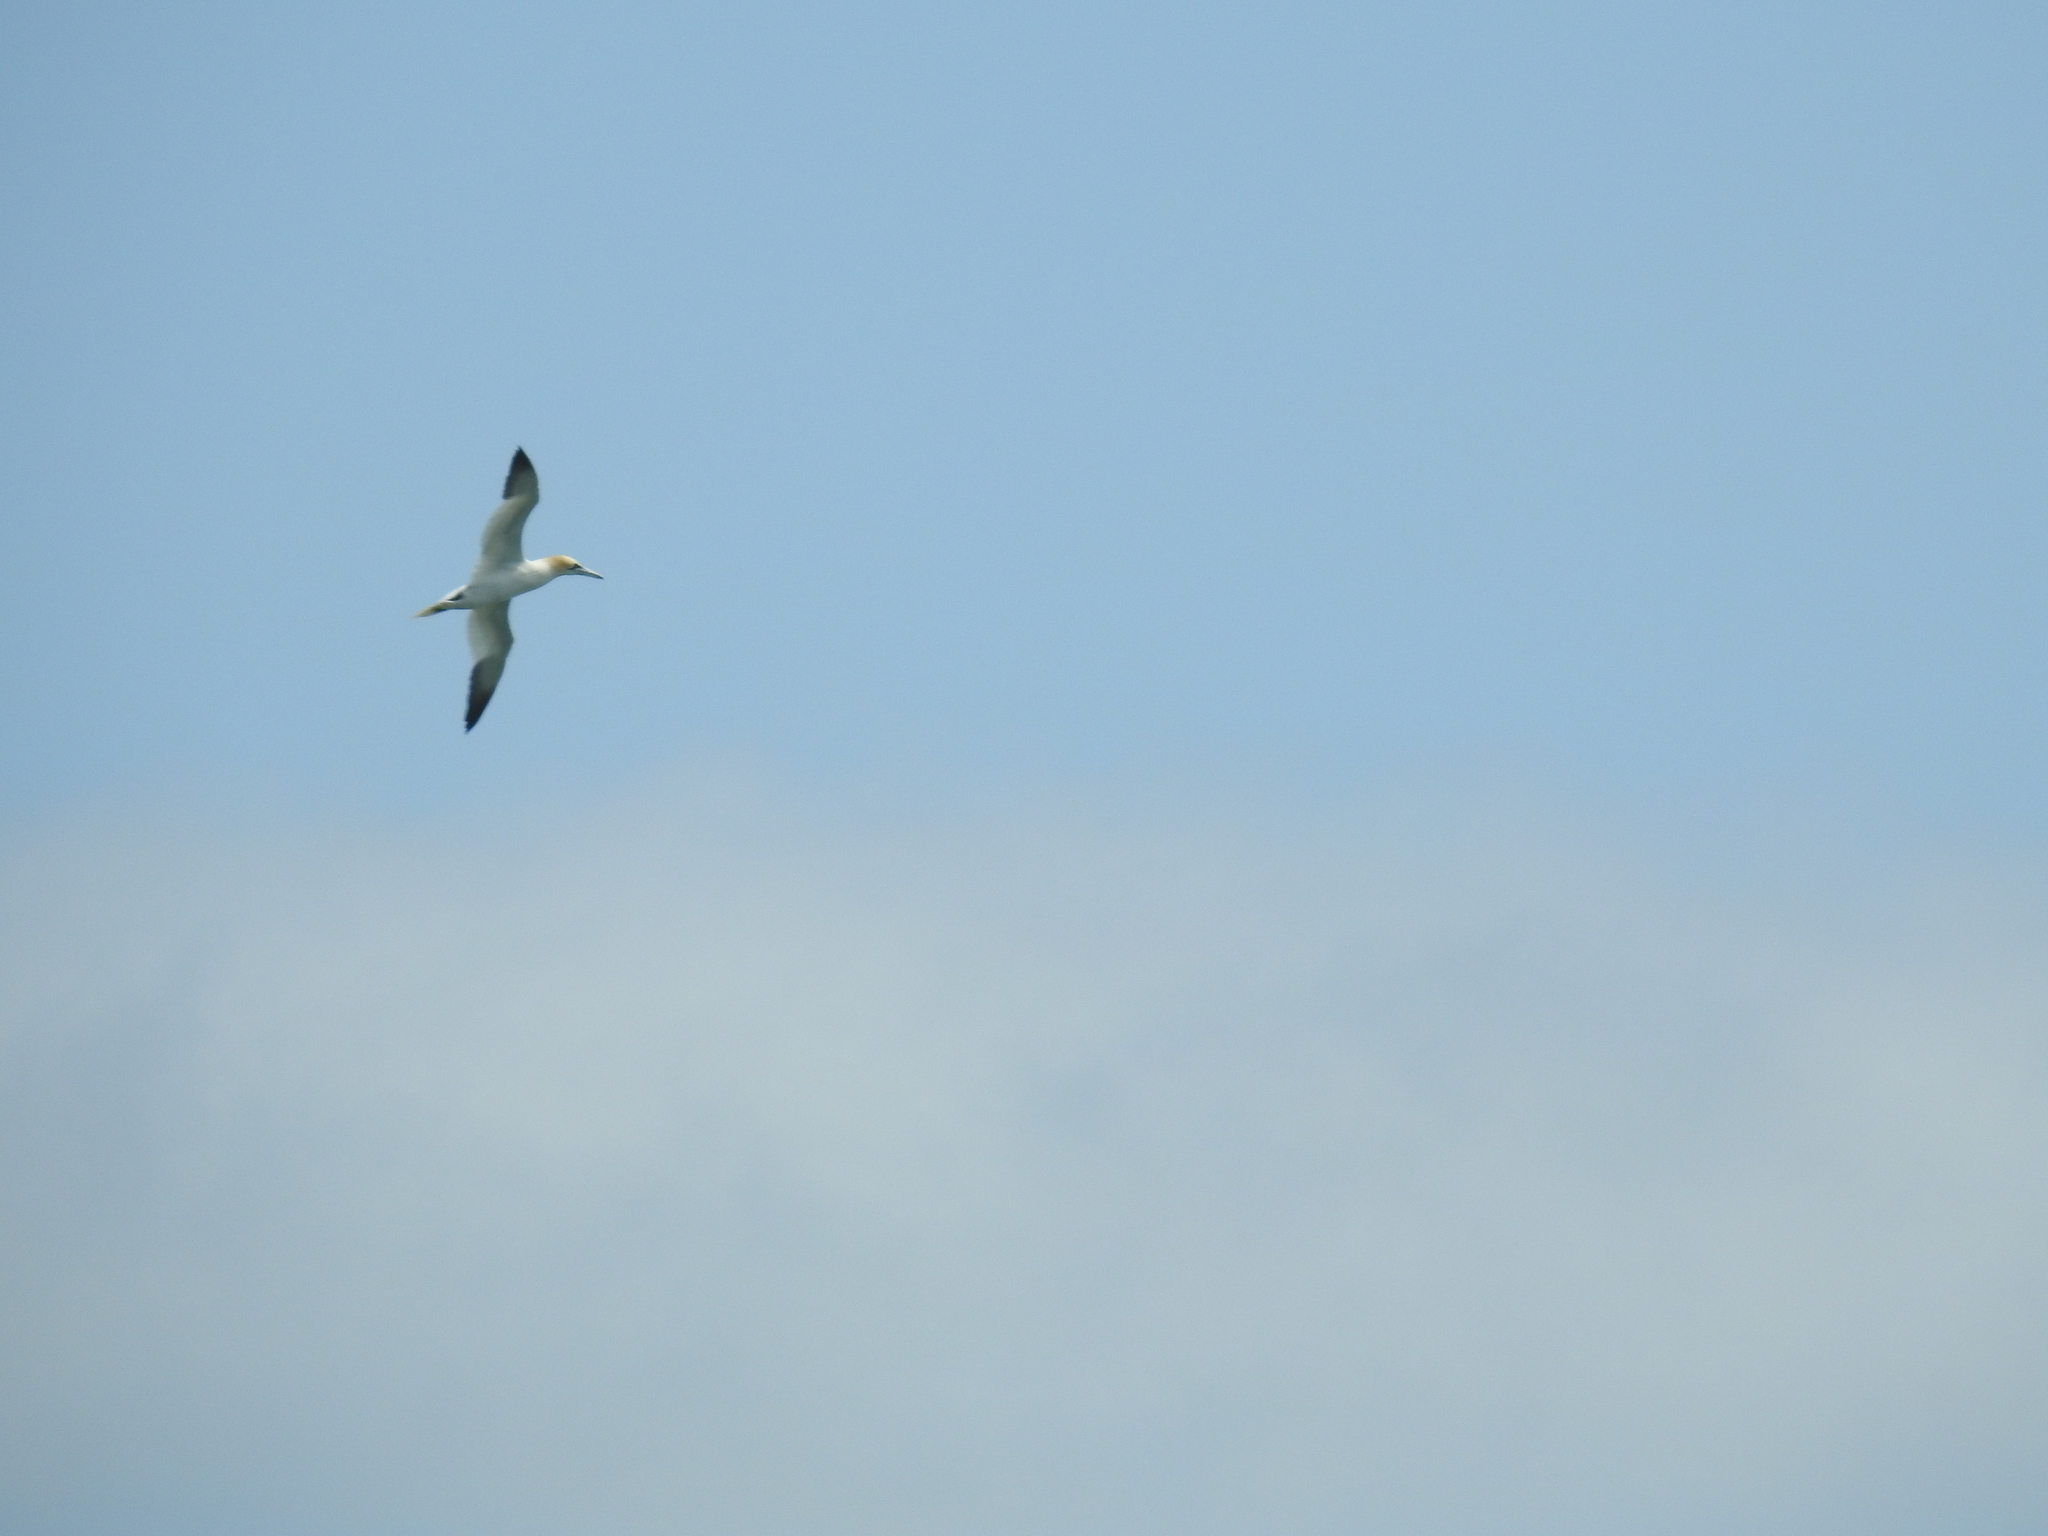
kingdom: Animalia
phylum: Chordata
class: Aves
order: Suliformes
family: Sulidae
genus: Morus
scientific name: Morus bassanus
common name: Northern gannet
